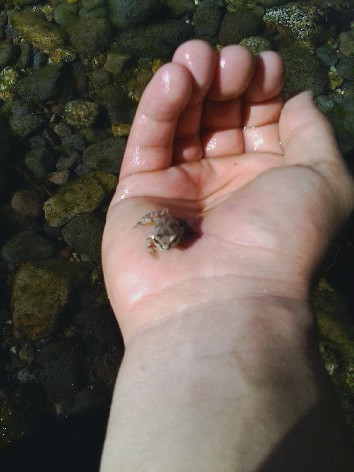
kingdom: Animalia
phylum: Chordata
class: Amphibia
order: Anura
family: Hylidae
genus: Pseudacris
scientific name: Pseudacris regilla
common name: Pacific chorus frog
